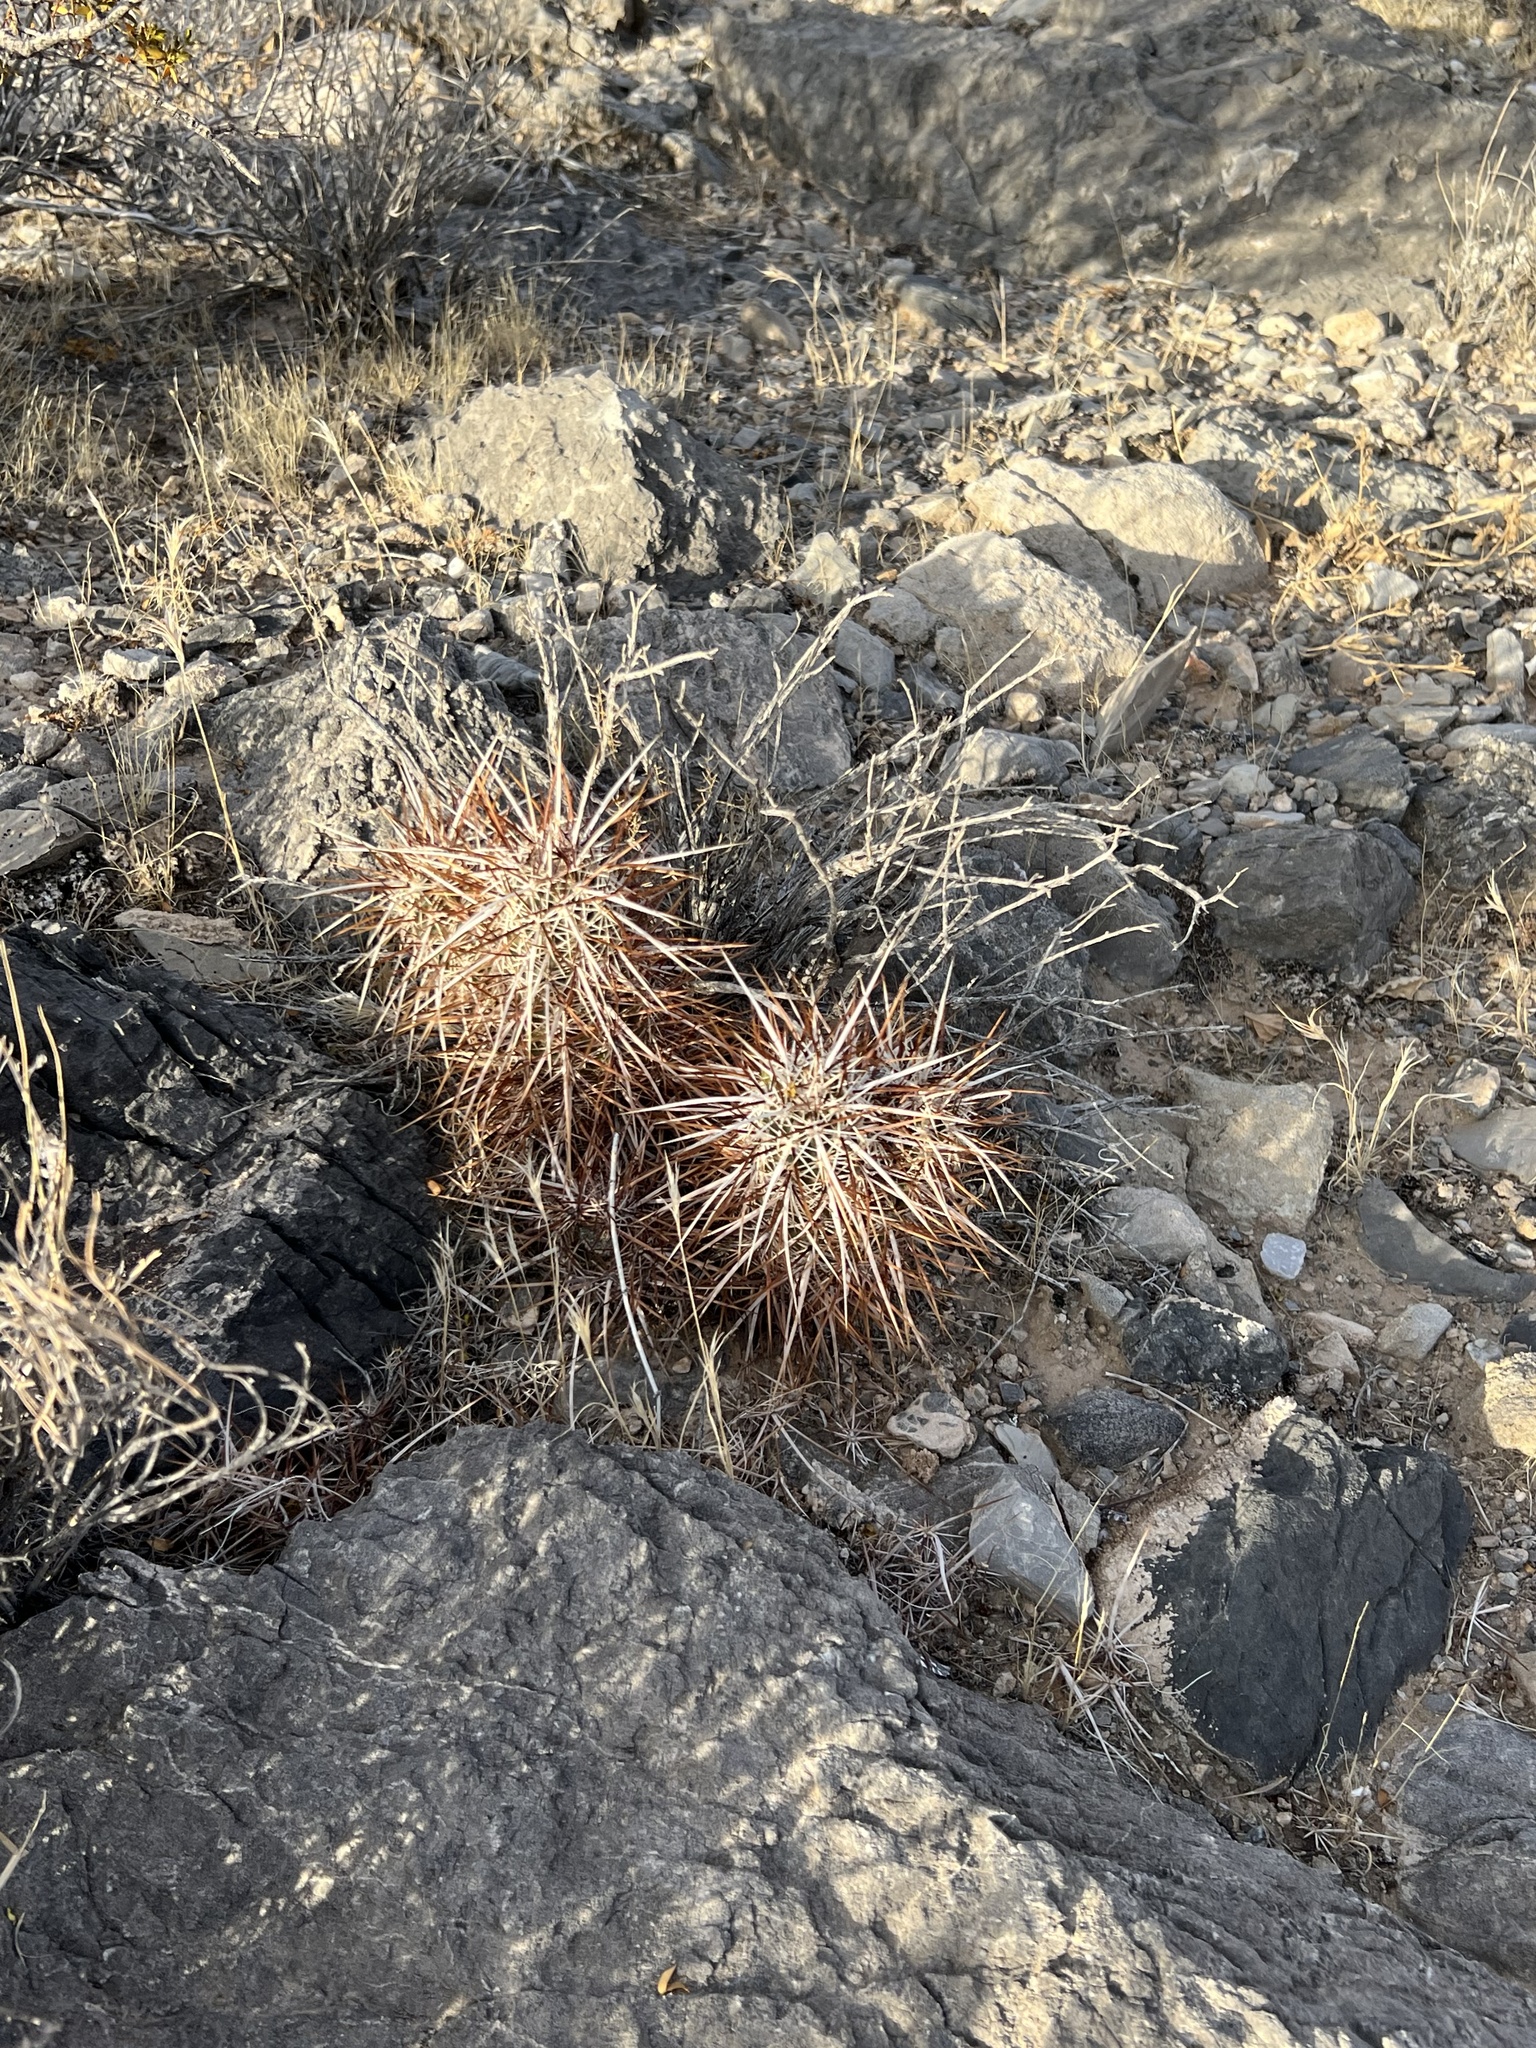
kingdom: Plantae
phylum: Tracheophyta
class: Magnoliopsida
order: Caryophyllales
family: Cactaceae
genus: Echinocereus
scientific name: Echinocereus engelmannii
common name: Engelmann's hedgehog cactus
